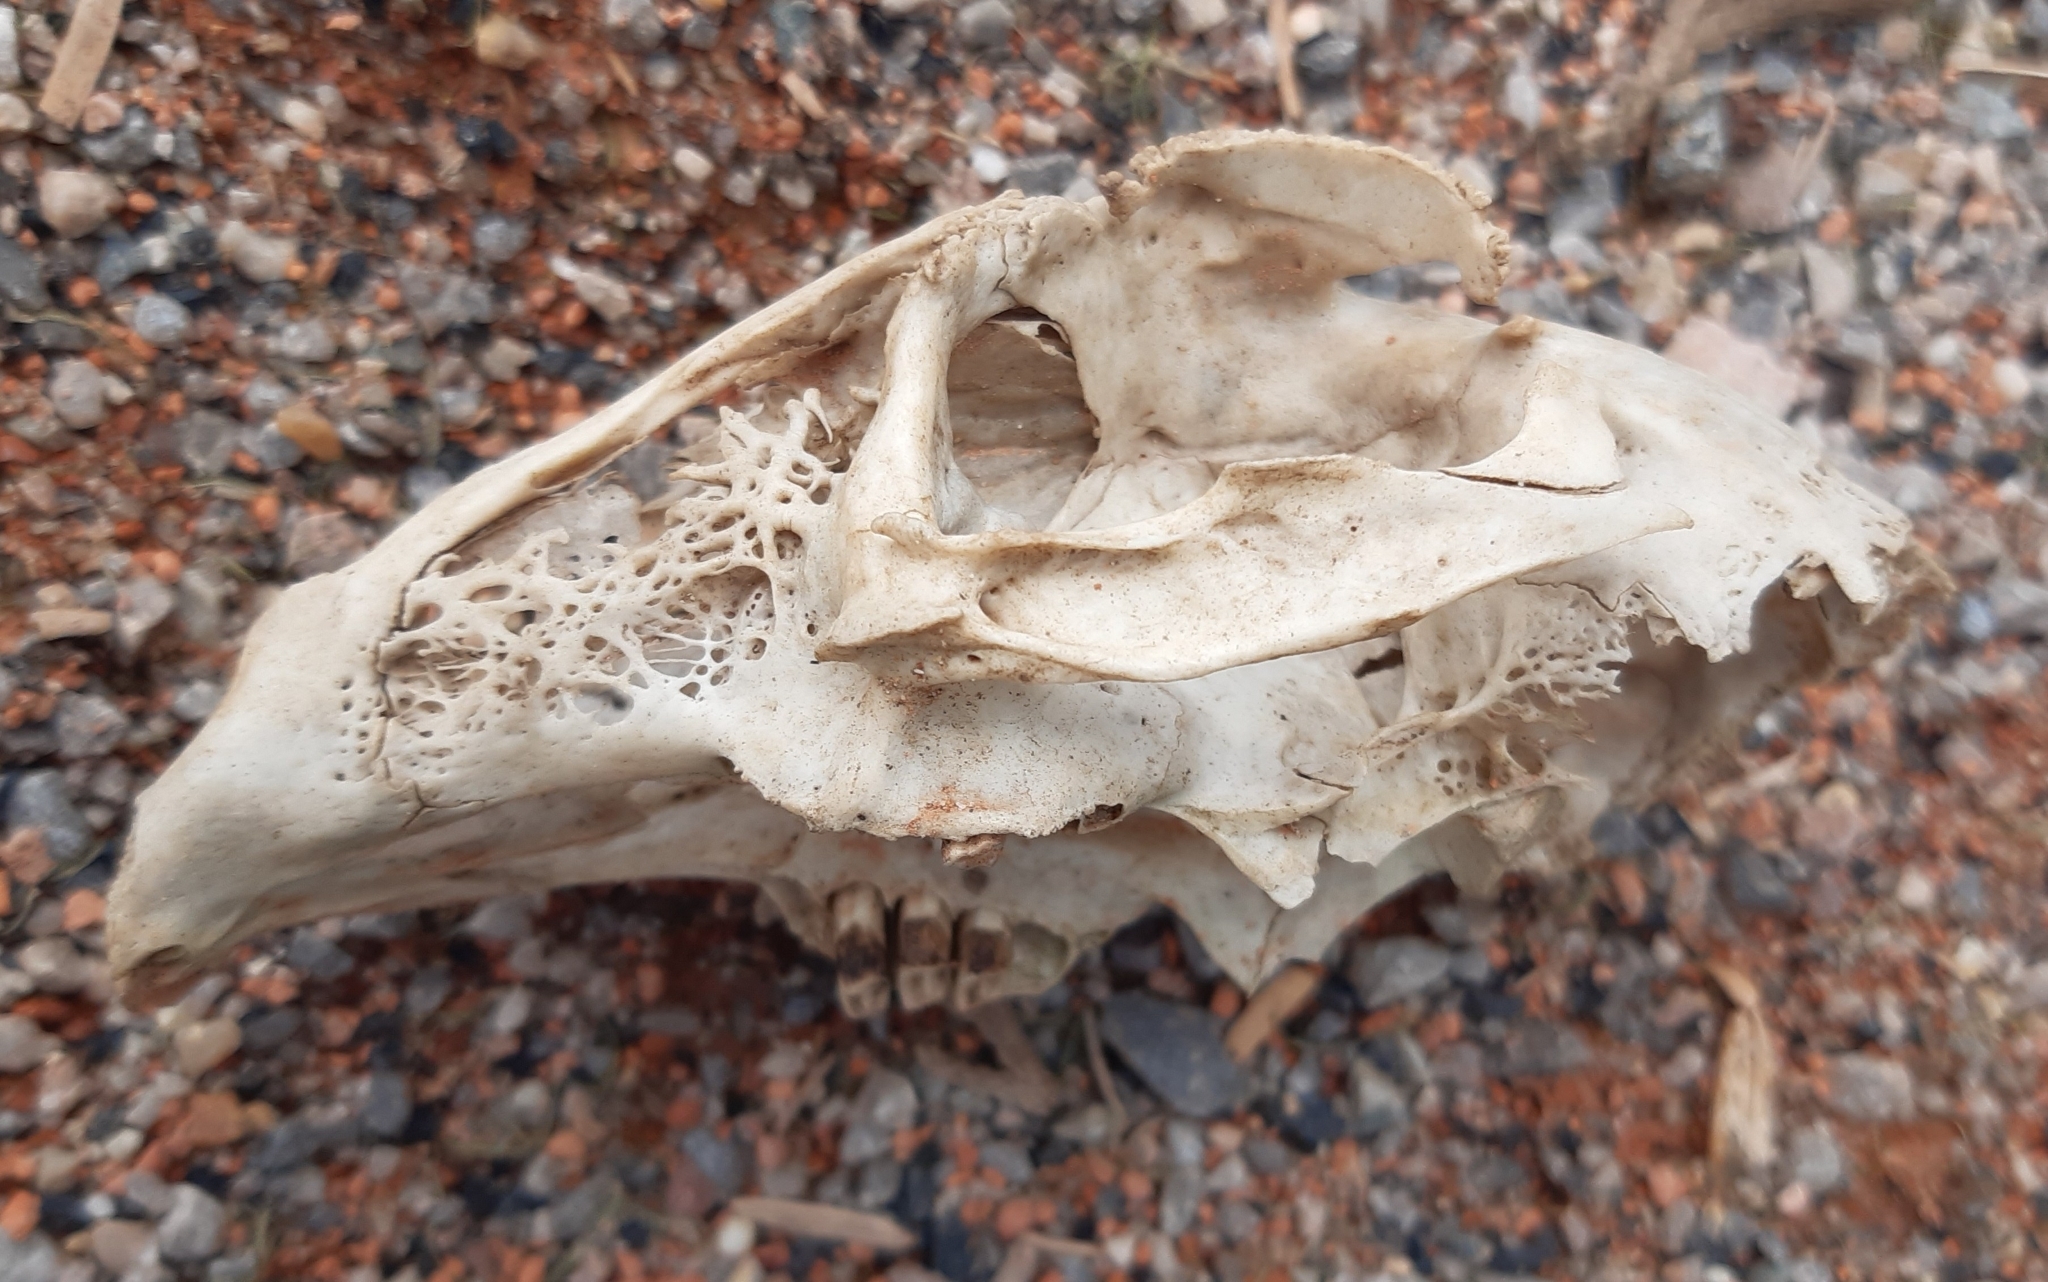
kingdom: Animalia
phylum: Chordata
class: Mammalia
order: Lagomorpha
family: Leporidae
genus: Lepus
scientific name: Lepus europaeus
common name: European hare
